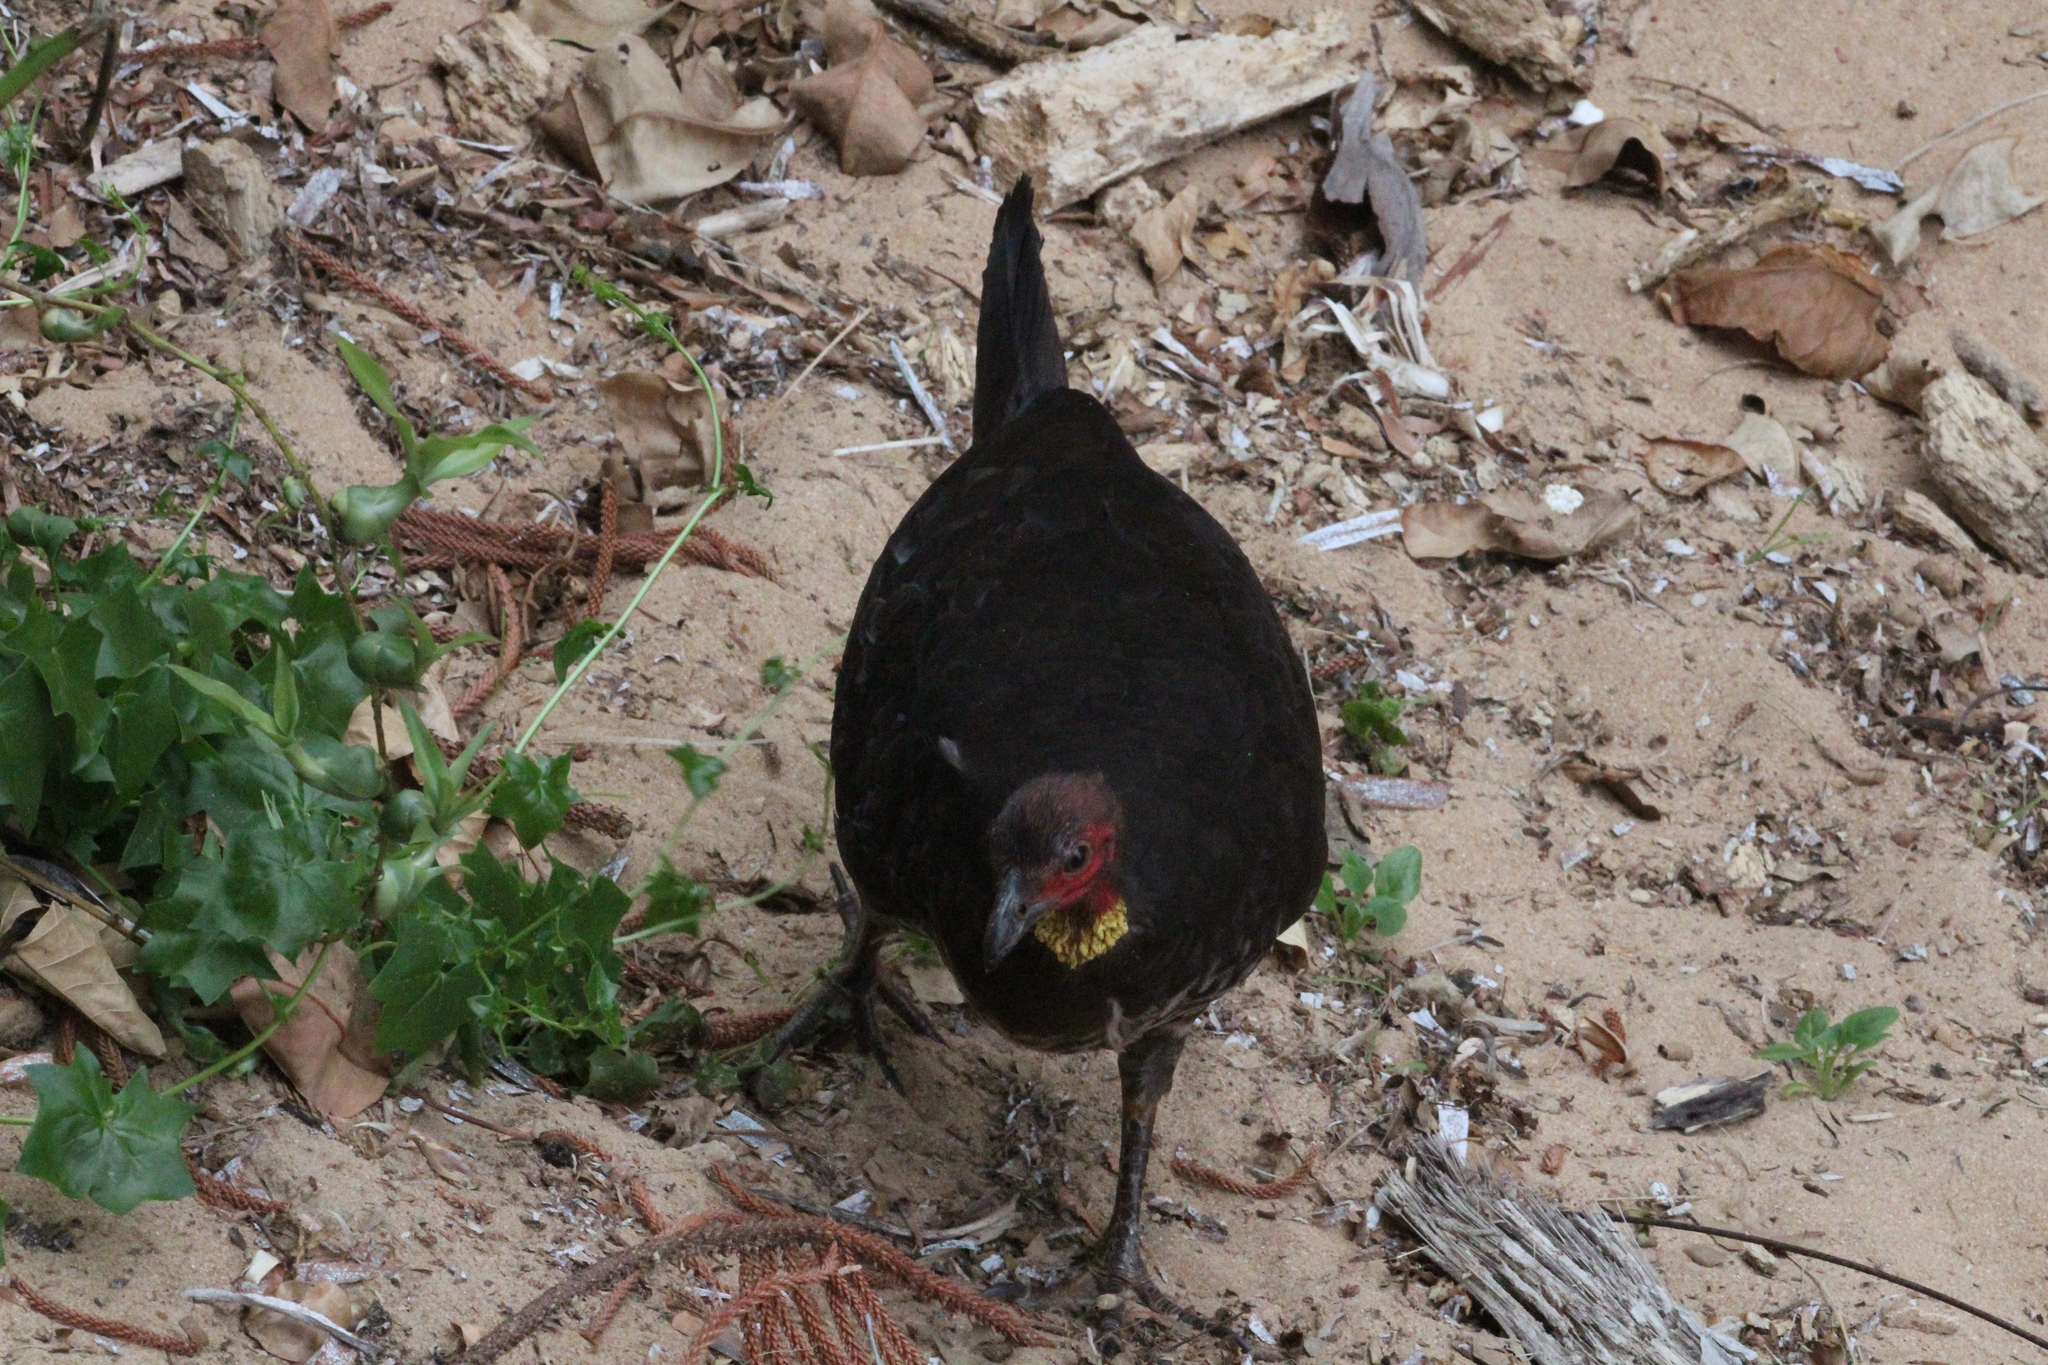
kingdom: Animalia
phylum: Chordata
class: Aves
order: Galliformes
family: Megapodiidae
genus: Alectura
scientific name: Alectura lathami
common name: Australian brushturkey
